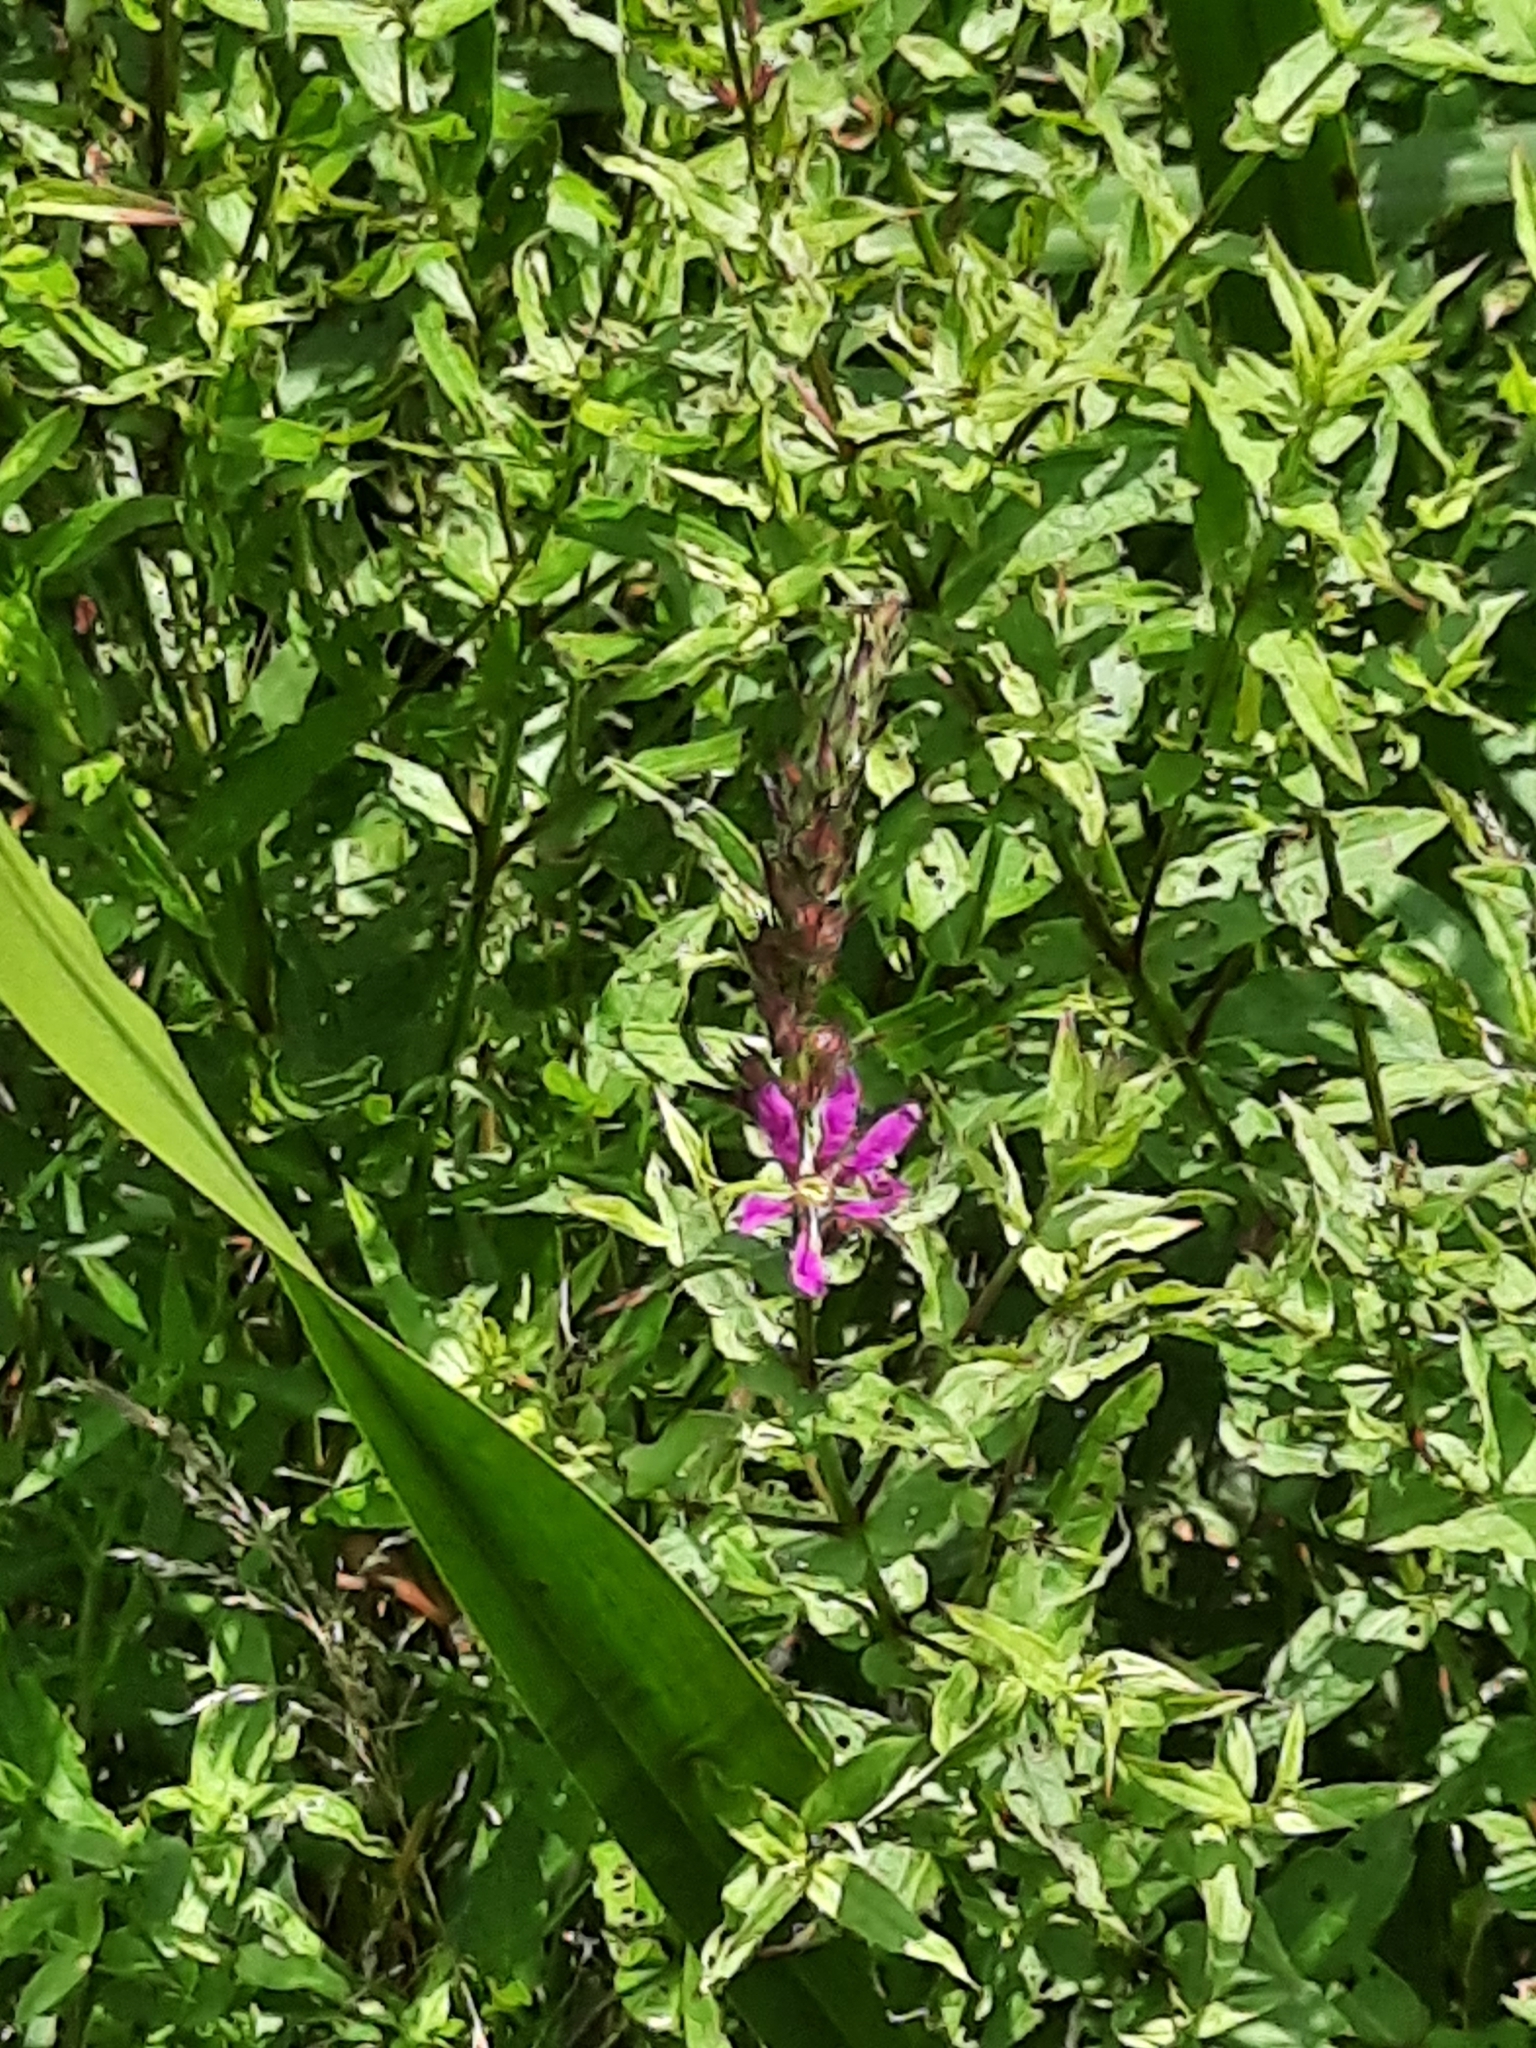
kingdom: Plantae
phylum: Tracheophyta
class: Magnoliopsida
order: Myrtales
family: Lythraceae
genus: Lythrum
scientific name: Lythrum salicaria
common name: Purple loosestrife
